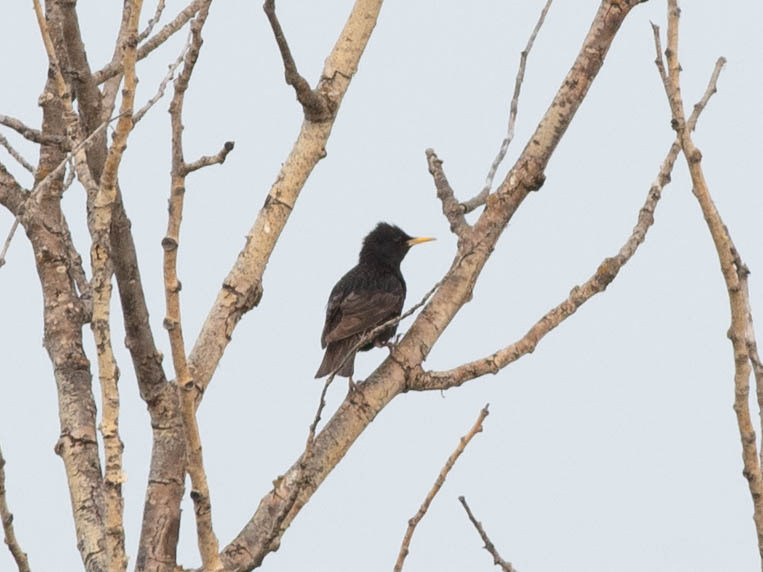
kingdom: Animalia
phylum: Chordata
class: Aves
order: Passeriformes
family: Sturnidae
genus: Sturnus
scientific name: Sturnus vulgaris
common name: Common starling
